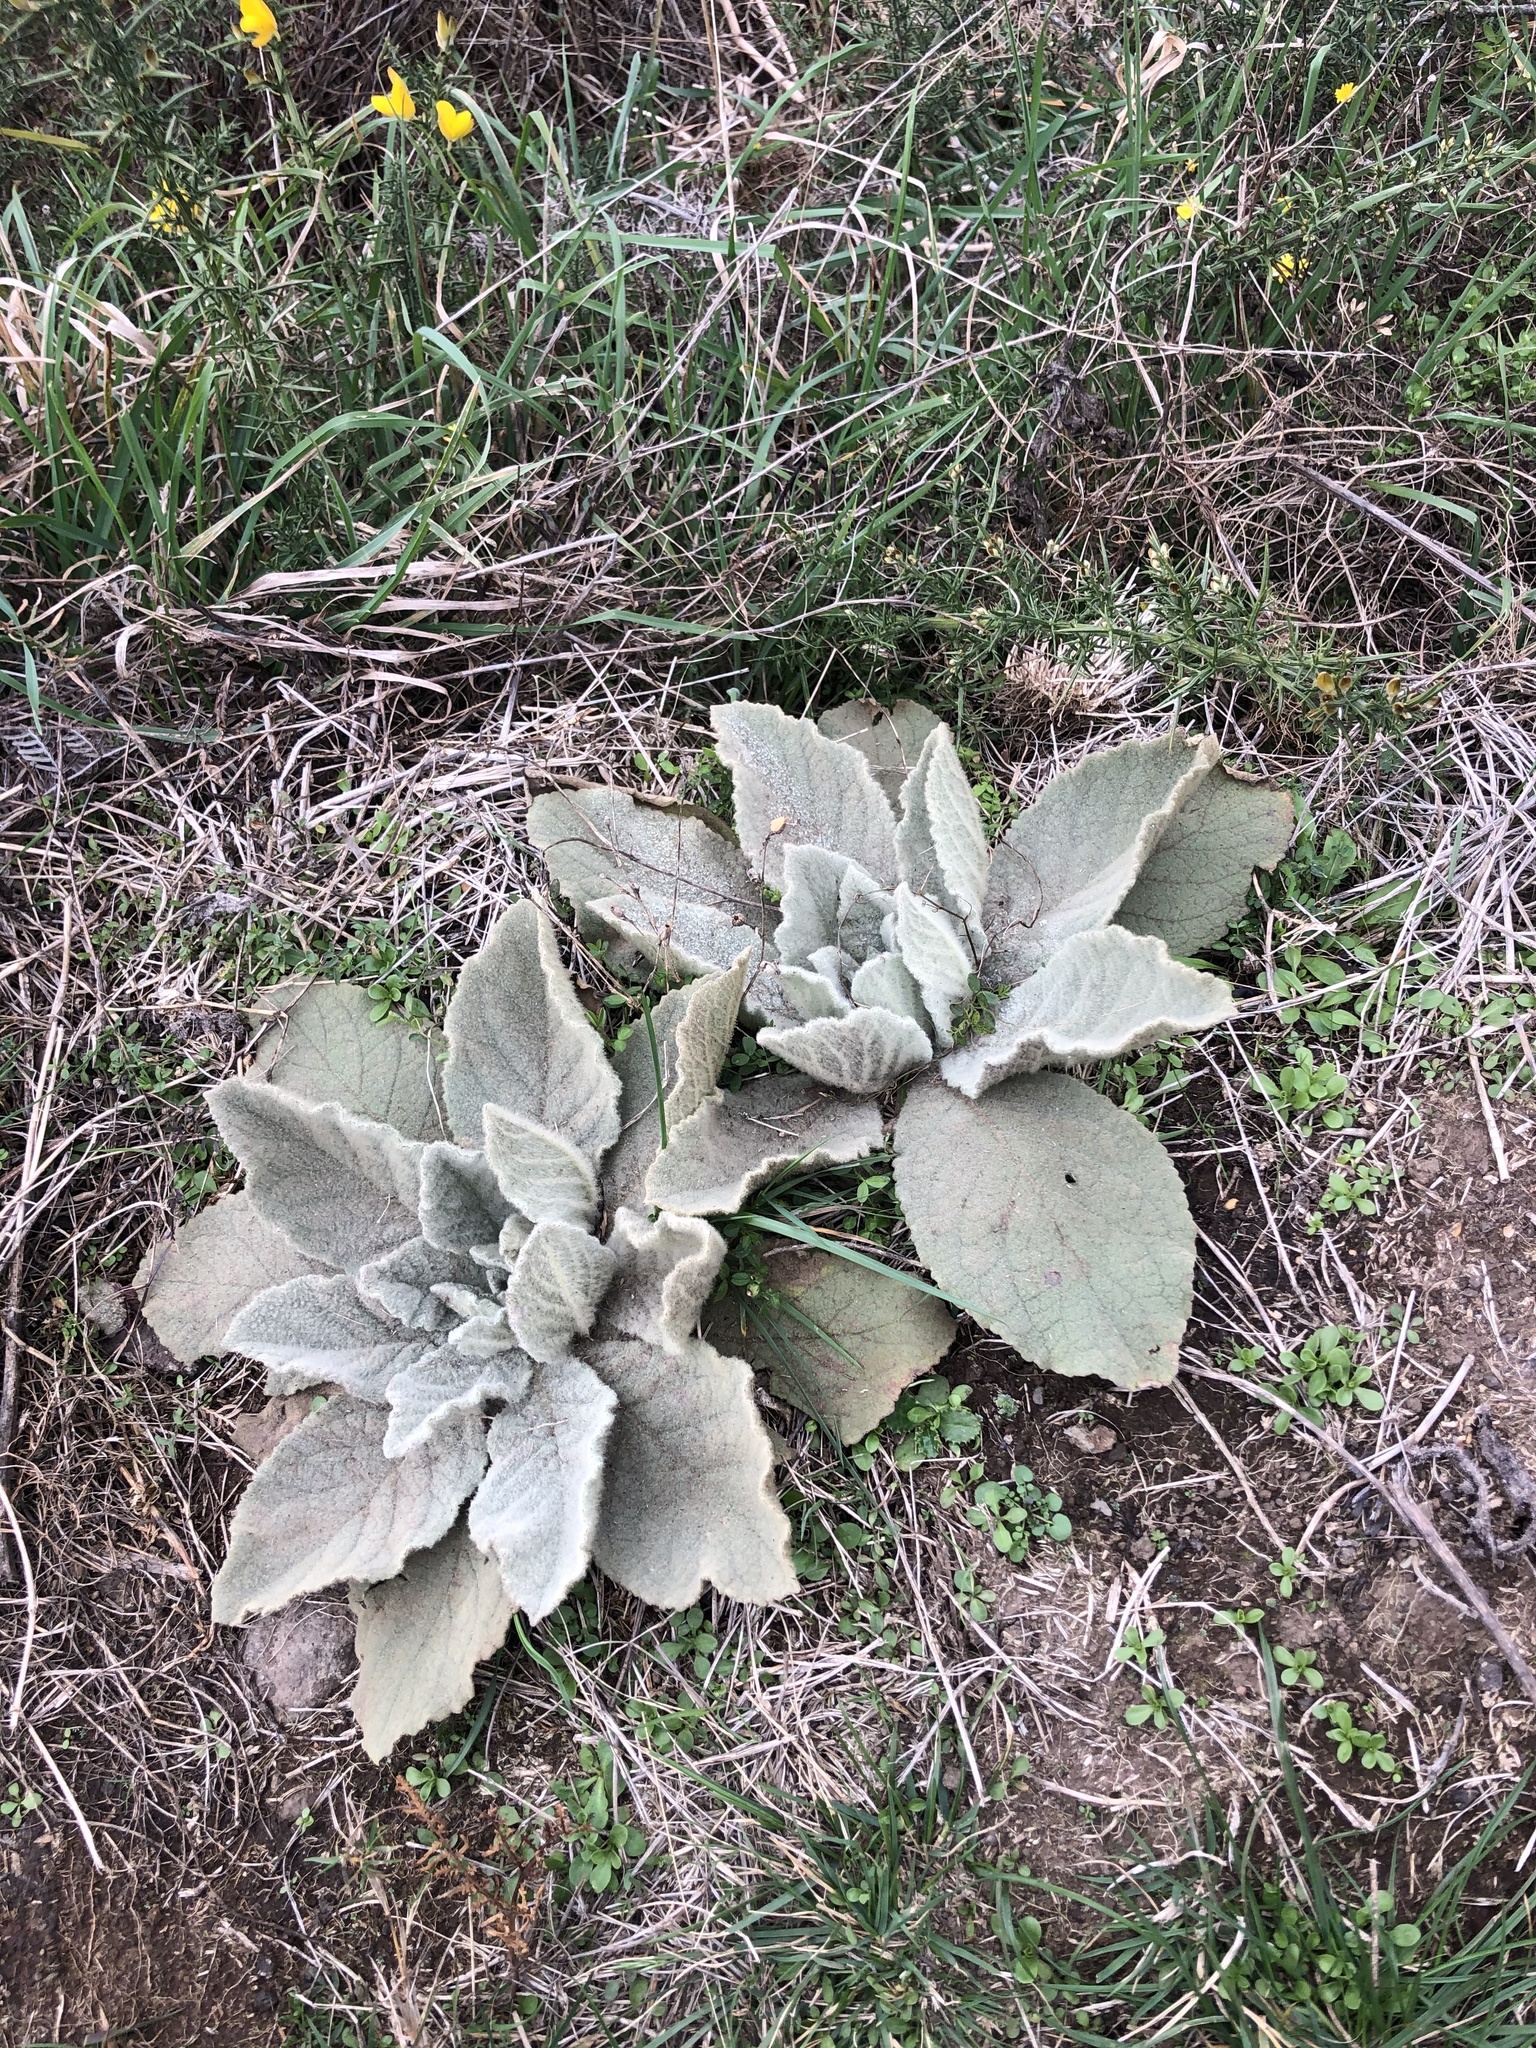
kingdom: Plantae
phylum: Tracheophyta
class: Magnoliopsida
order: Lamiales
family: Scrophulariaceae
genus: Verbascum
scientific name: Verbascum thapsus
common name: Common mullein
